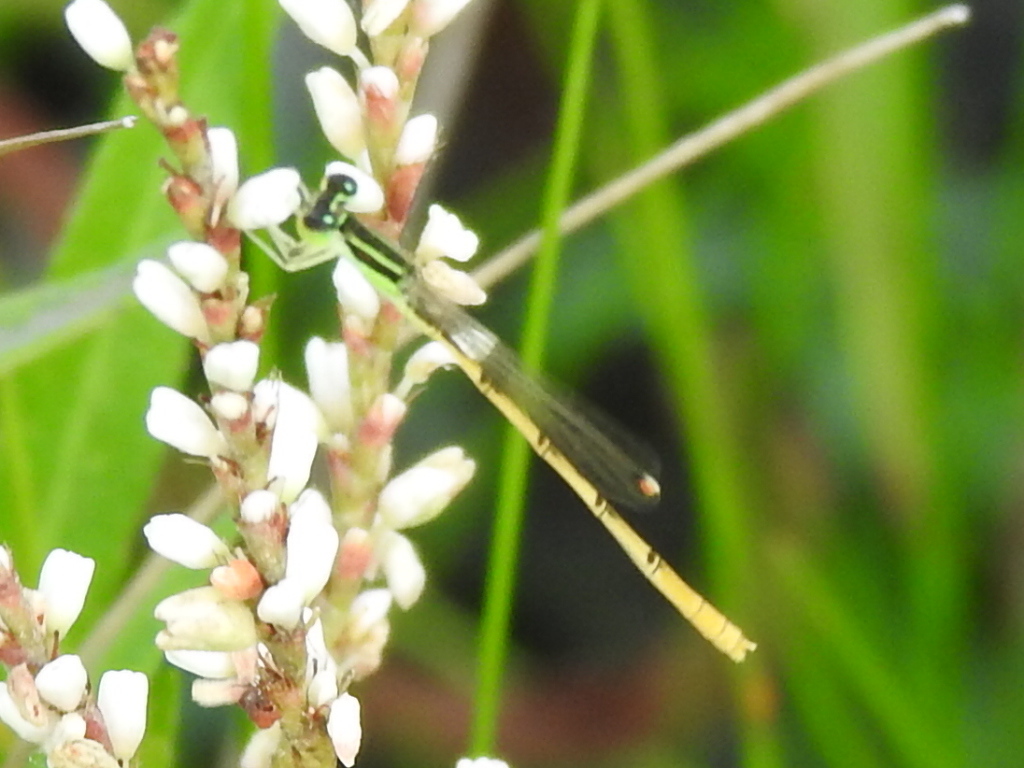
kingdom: Animalia
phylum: Arthropoda
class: Insecta
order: Odonata
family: Coenagrionidae
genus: Ischnura
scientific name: Ischnura hastata
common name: Citrine forktail
